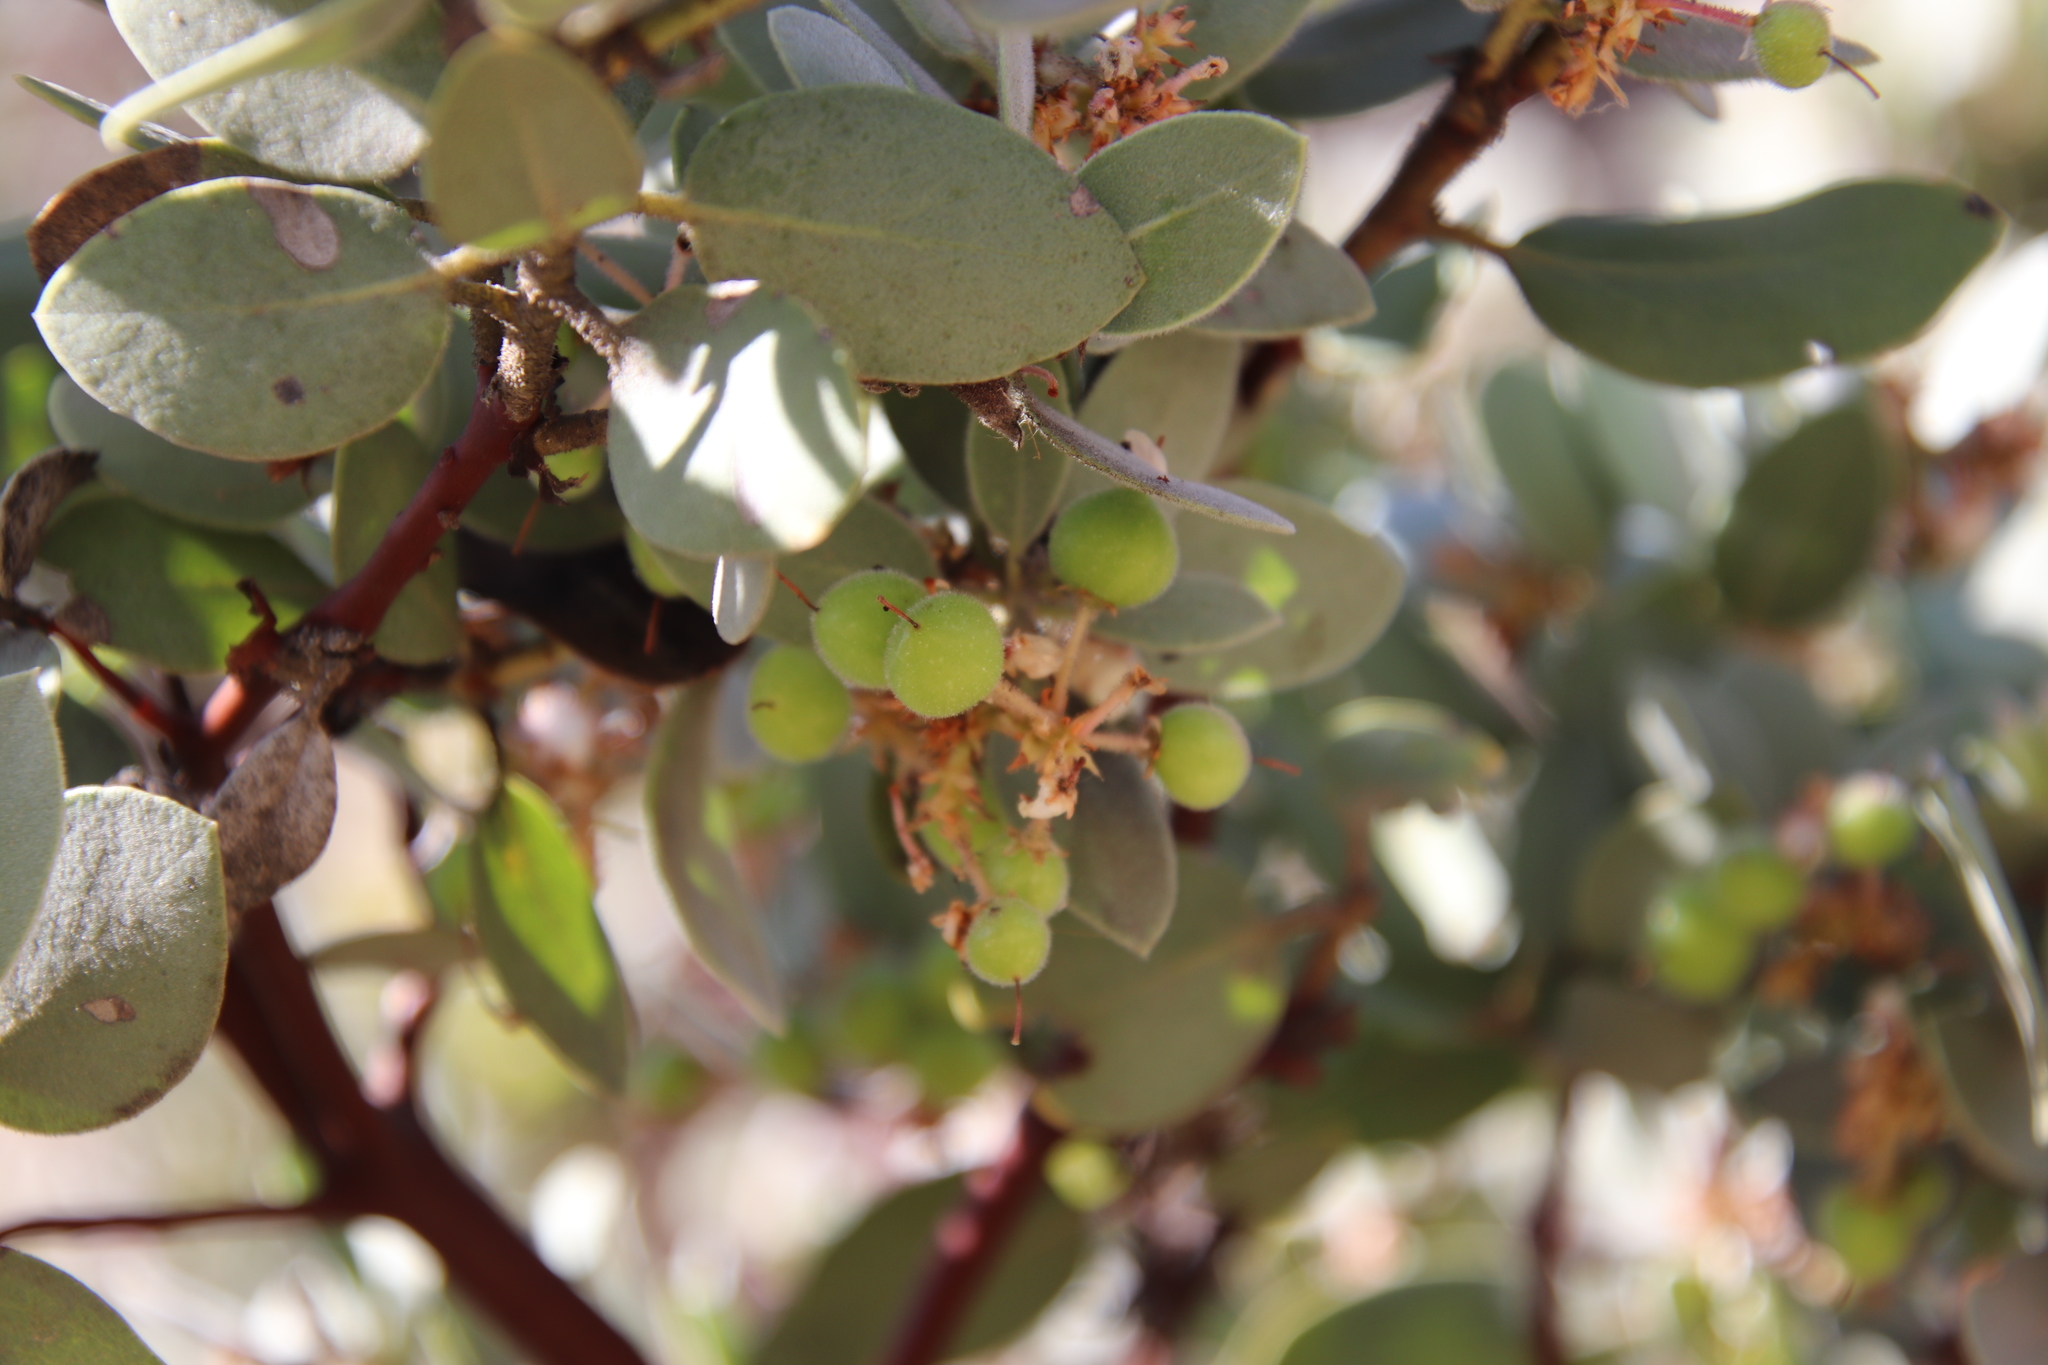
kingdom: Plantae
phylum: Tracheophyta
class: Magnoliopsida
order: Ericales
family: Ericaceae
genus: Arctostaphylos
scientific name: Arctostaphylos glandulosa
